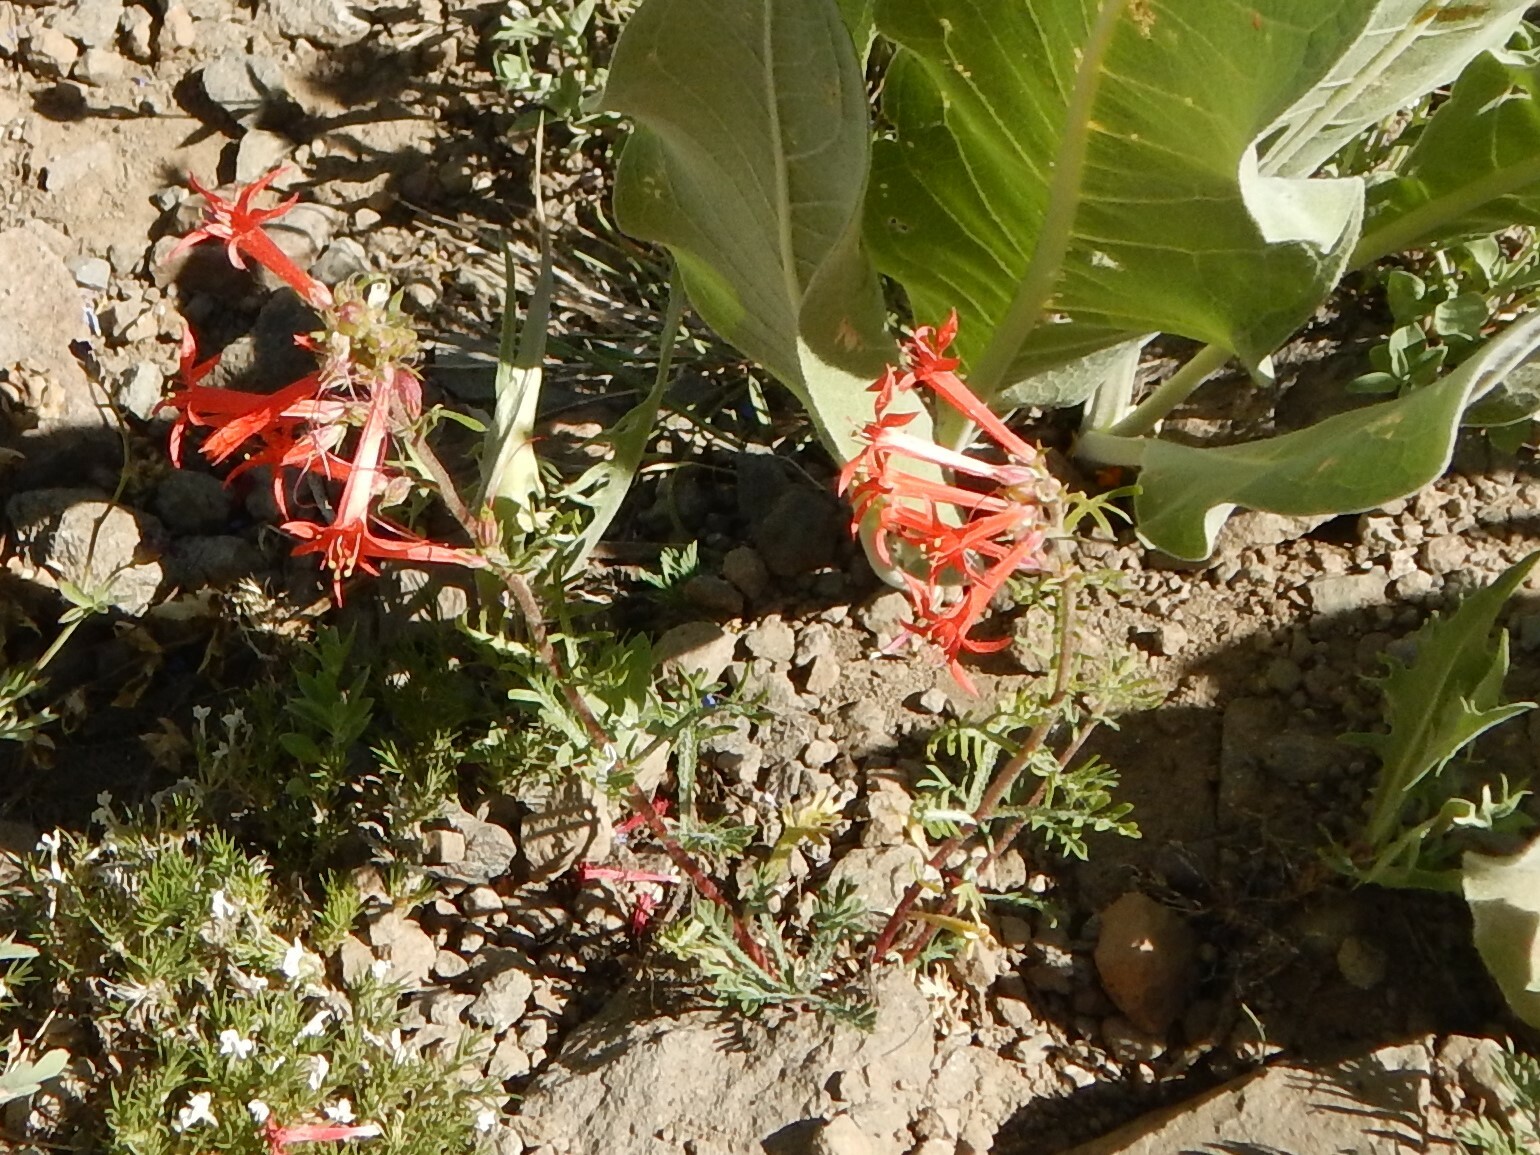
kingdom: Plantae
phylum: Tracheophyta
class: Magnoliopsida
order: Ericales
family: Polemoniaceae
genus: Ipomopsis
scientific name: Ipomopsis aggregata
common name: Scarlet gilia
